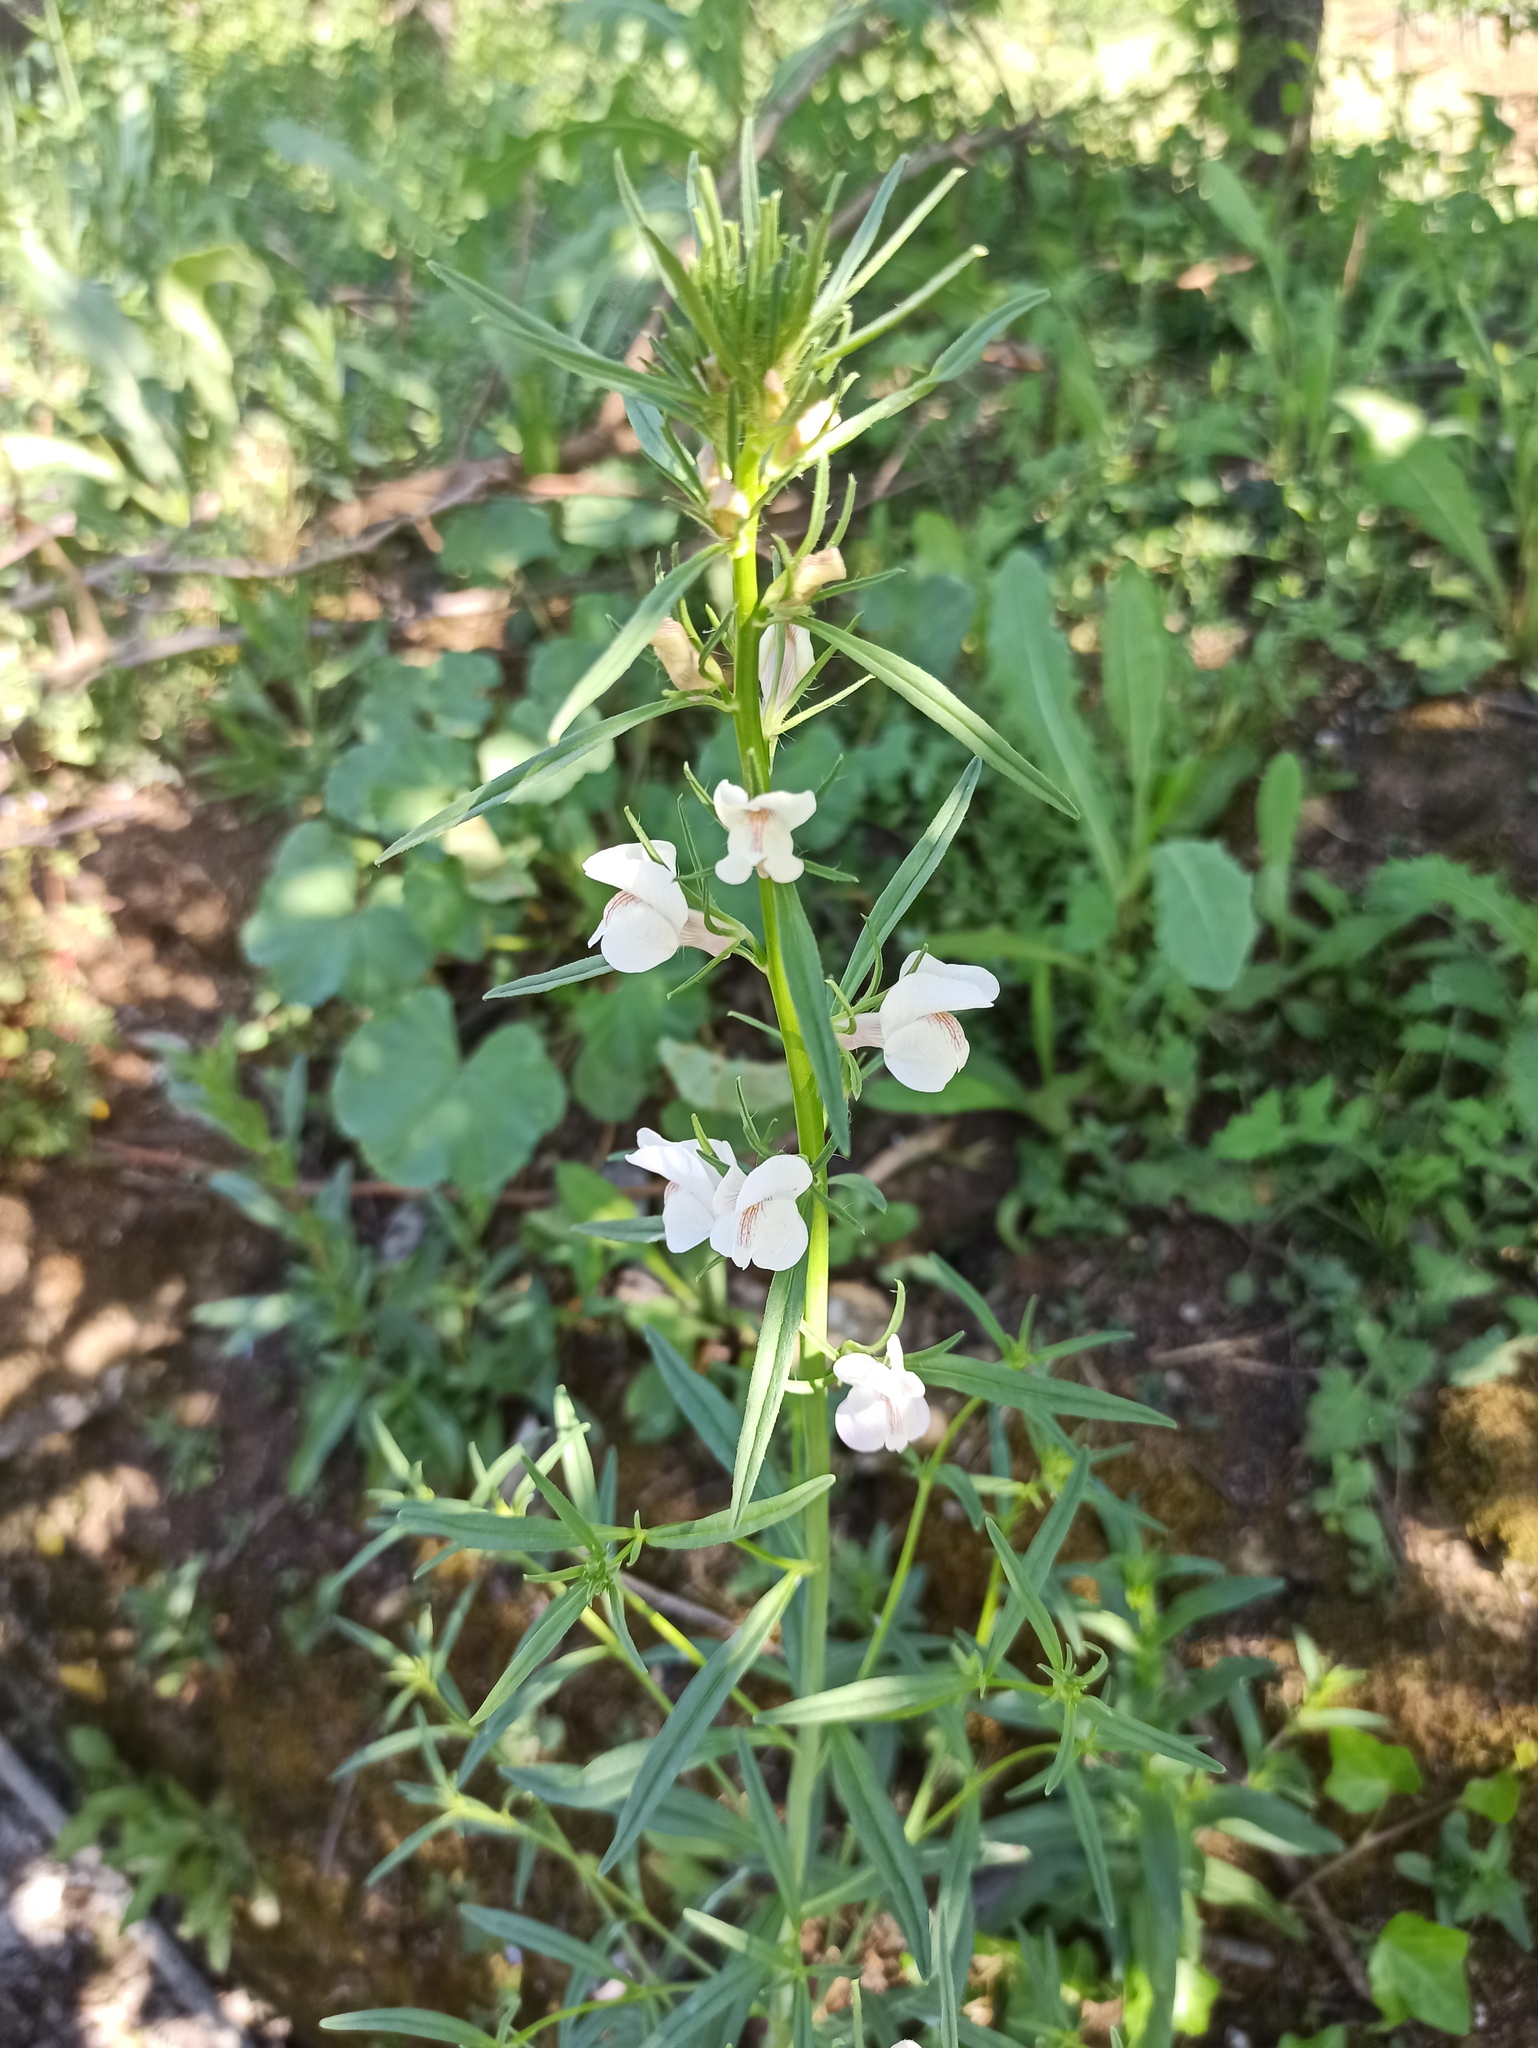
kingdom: Plantae
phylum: Tracheophyta
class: Magnoliopsida
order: Lamiales
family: Plantaginaceae
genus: Misopates
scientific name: Misopates calycinum
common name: Pale weasel's-snout
